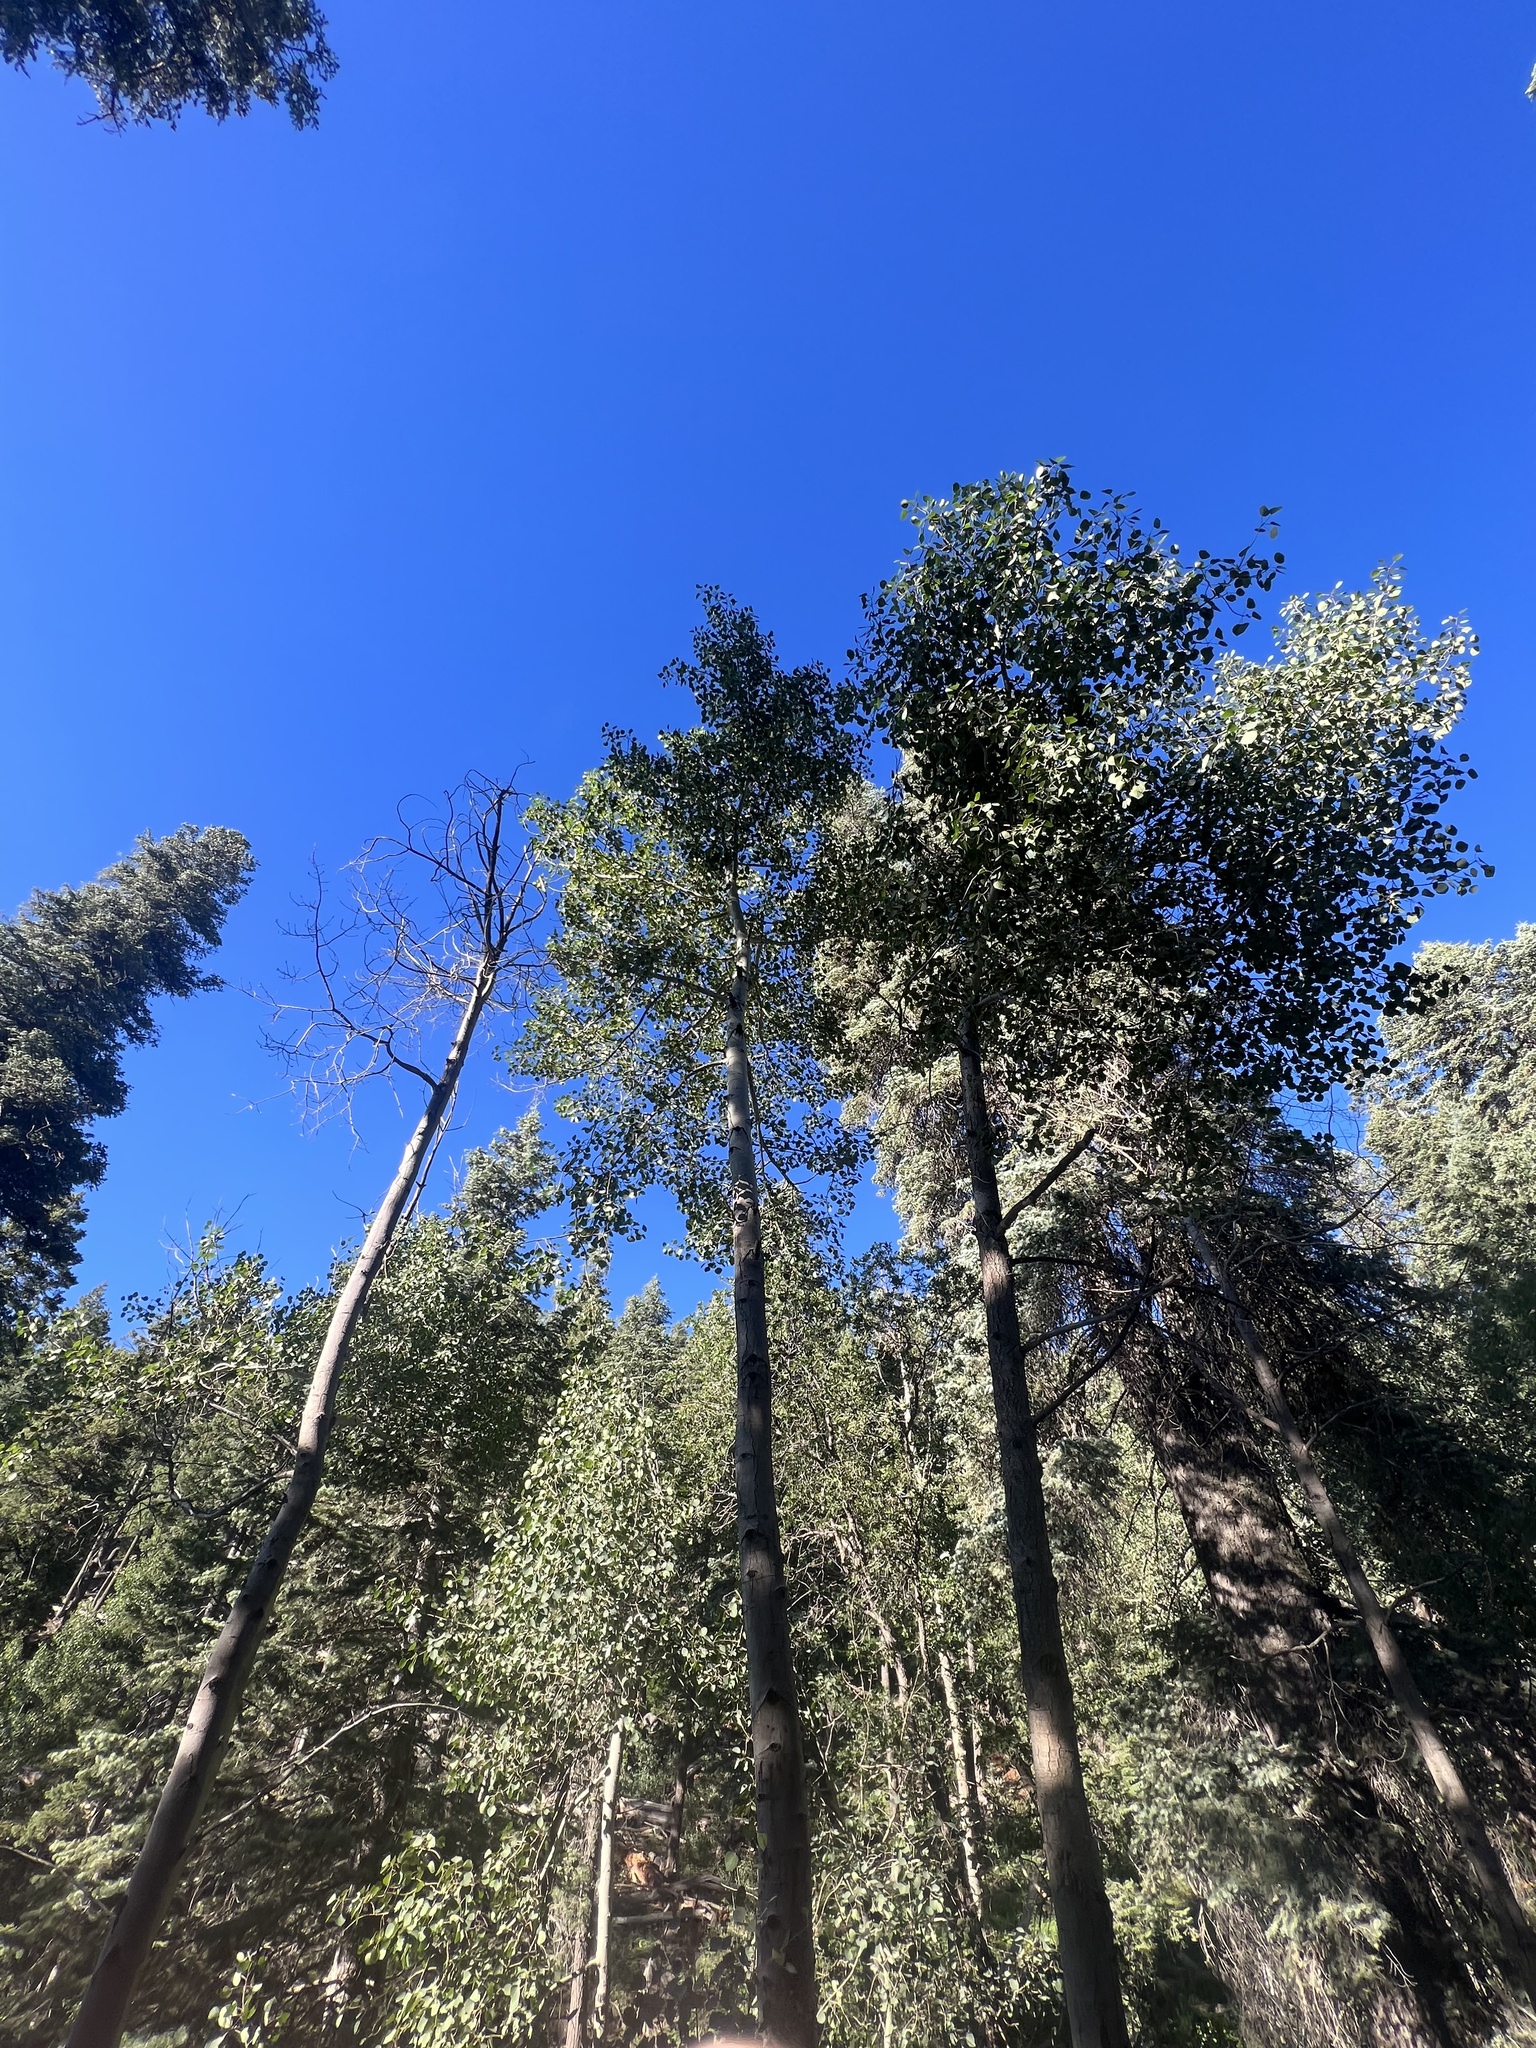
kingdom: Plantae
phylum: Tracheophyta
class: Magnoliopsida
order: Malpighiales
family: Salicaceae
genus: Populus
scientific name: Populus tremuloides
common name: Quaking aspen
